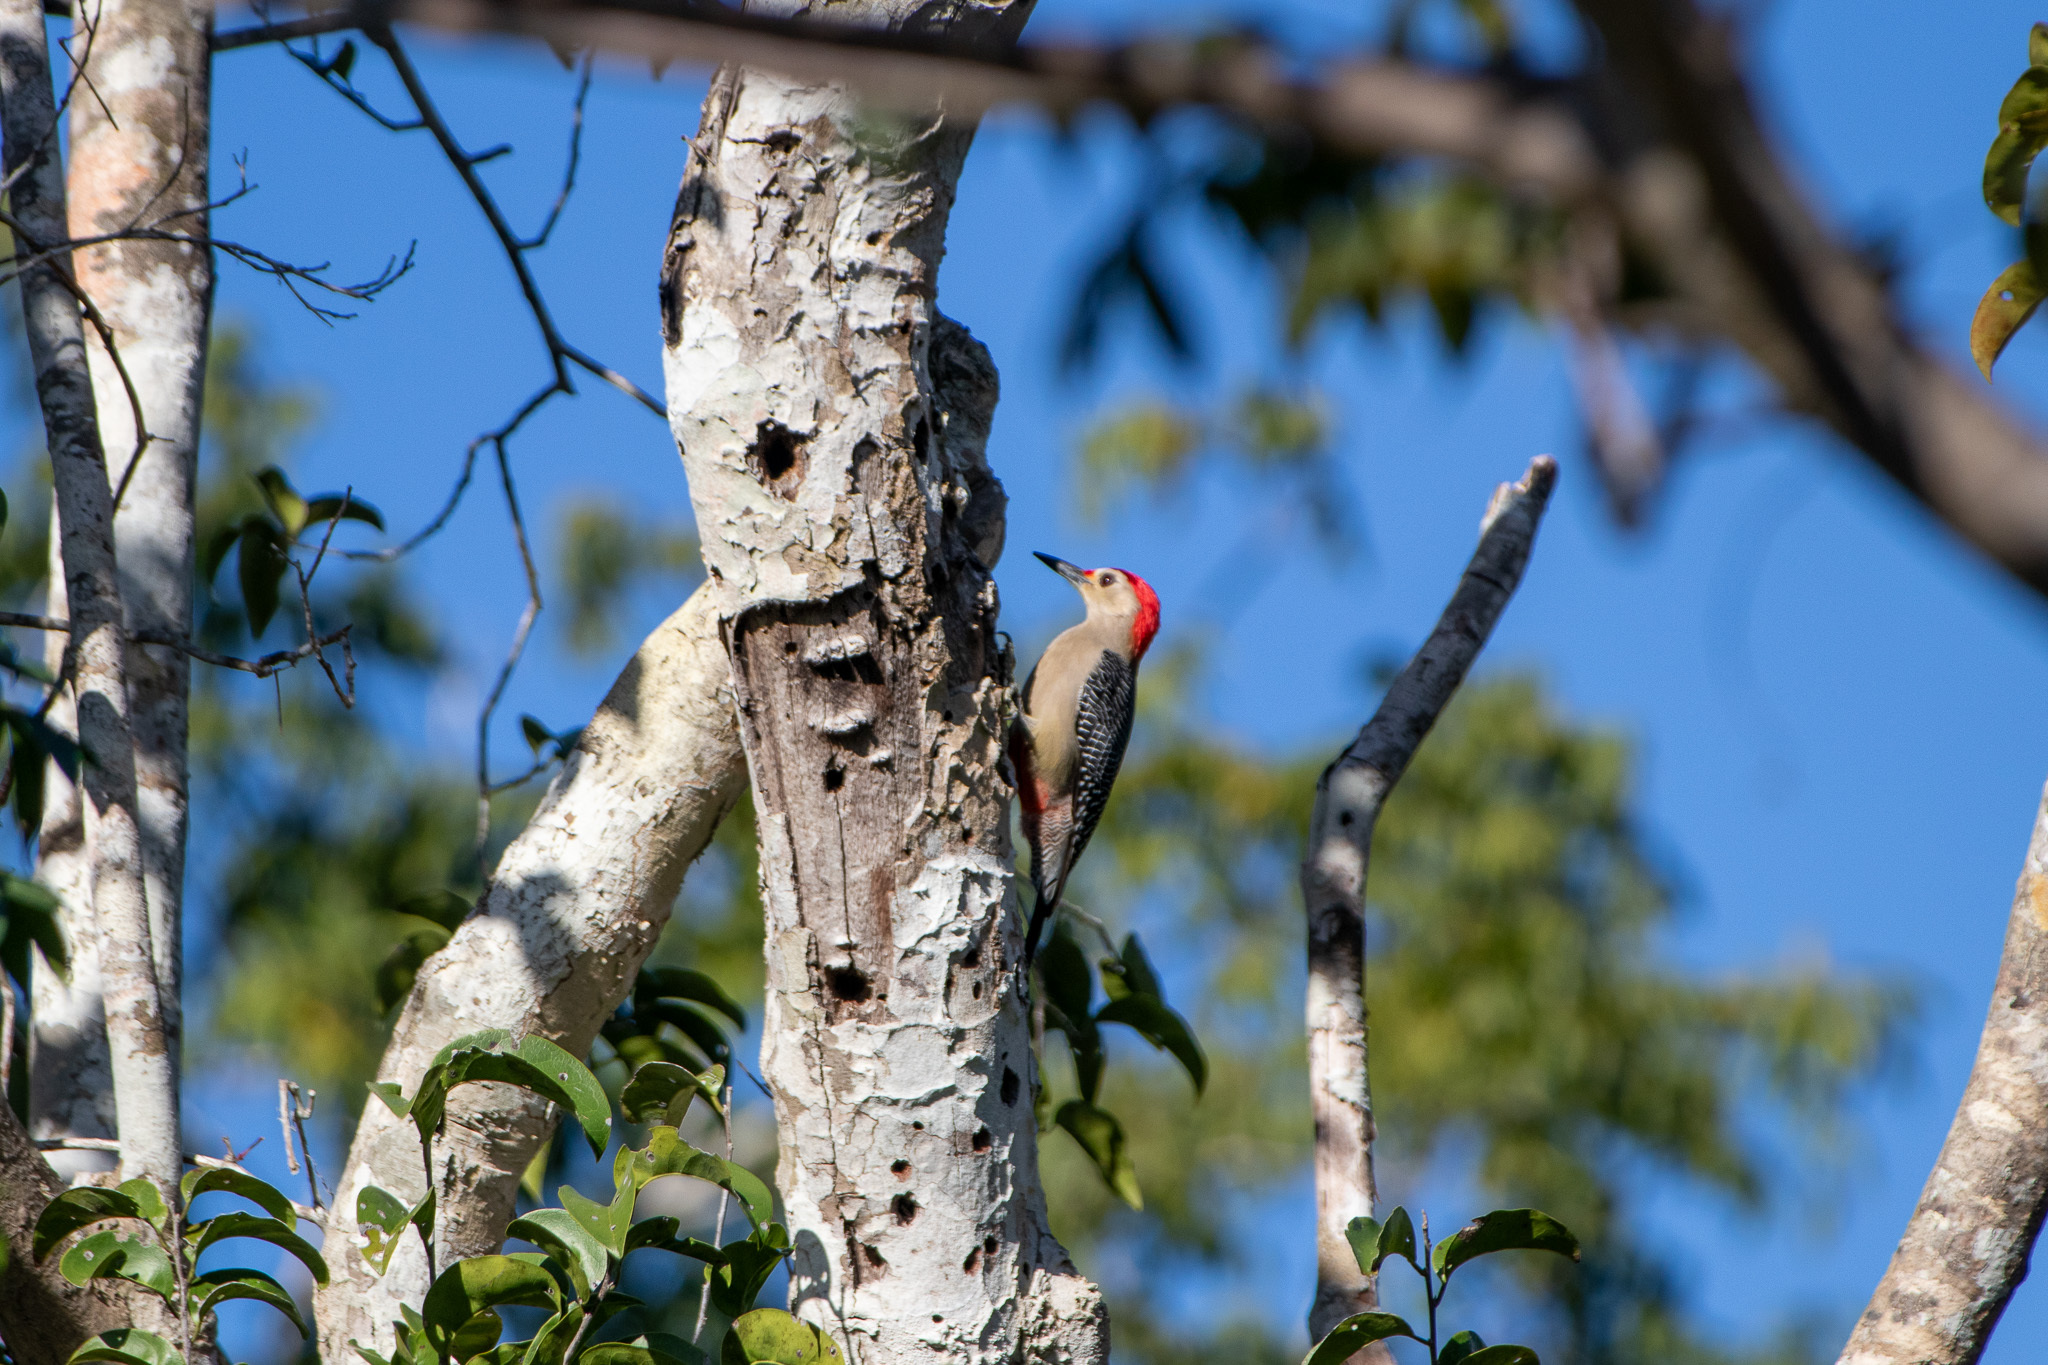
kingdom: Animalia
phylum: Chordata
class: Aves
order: Piciformes
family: Picidae
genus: Melanerpes
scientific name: Melanerpes aurifrons
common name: Golden-fronted woodpecker
